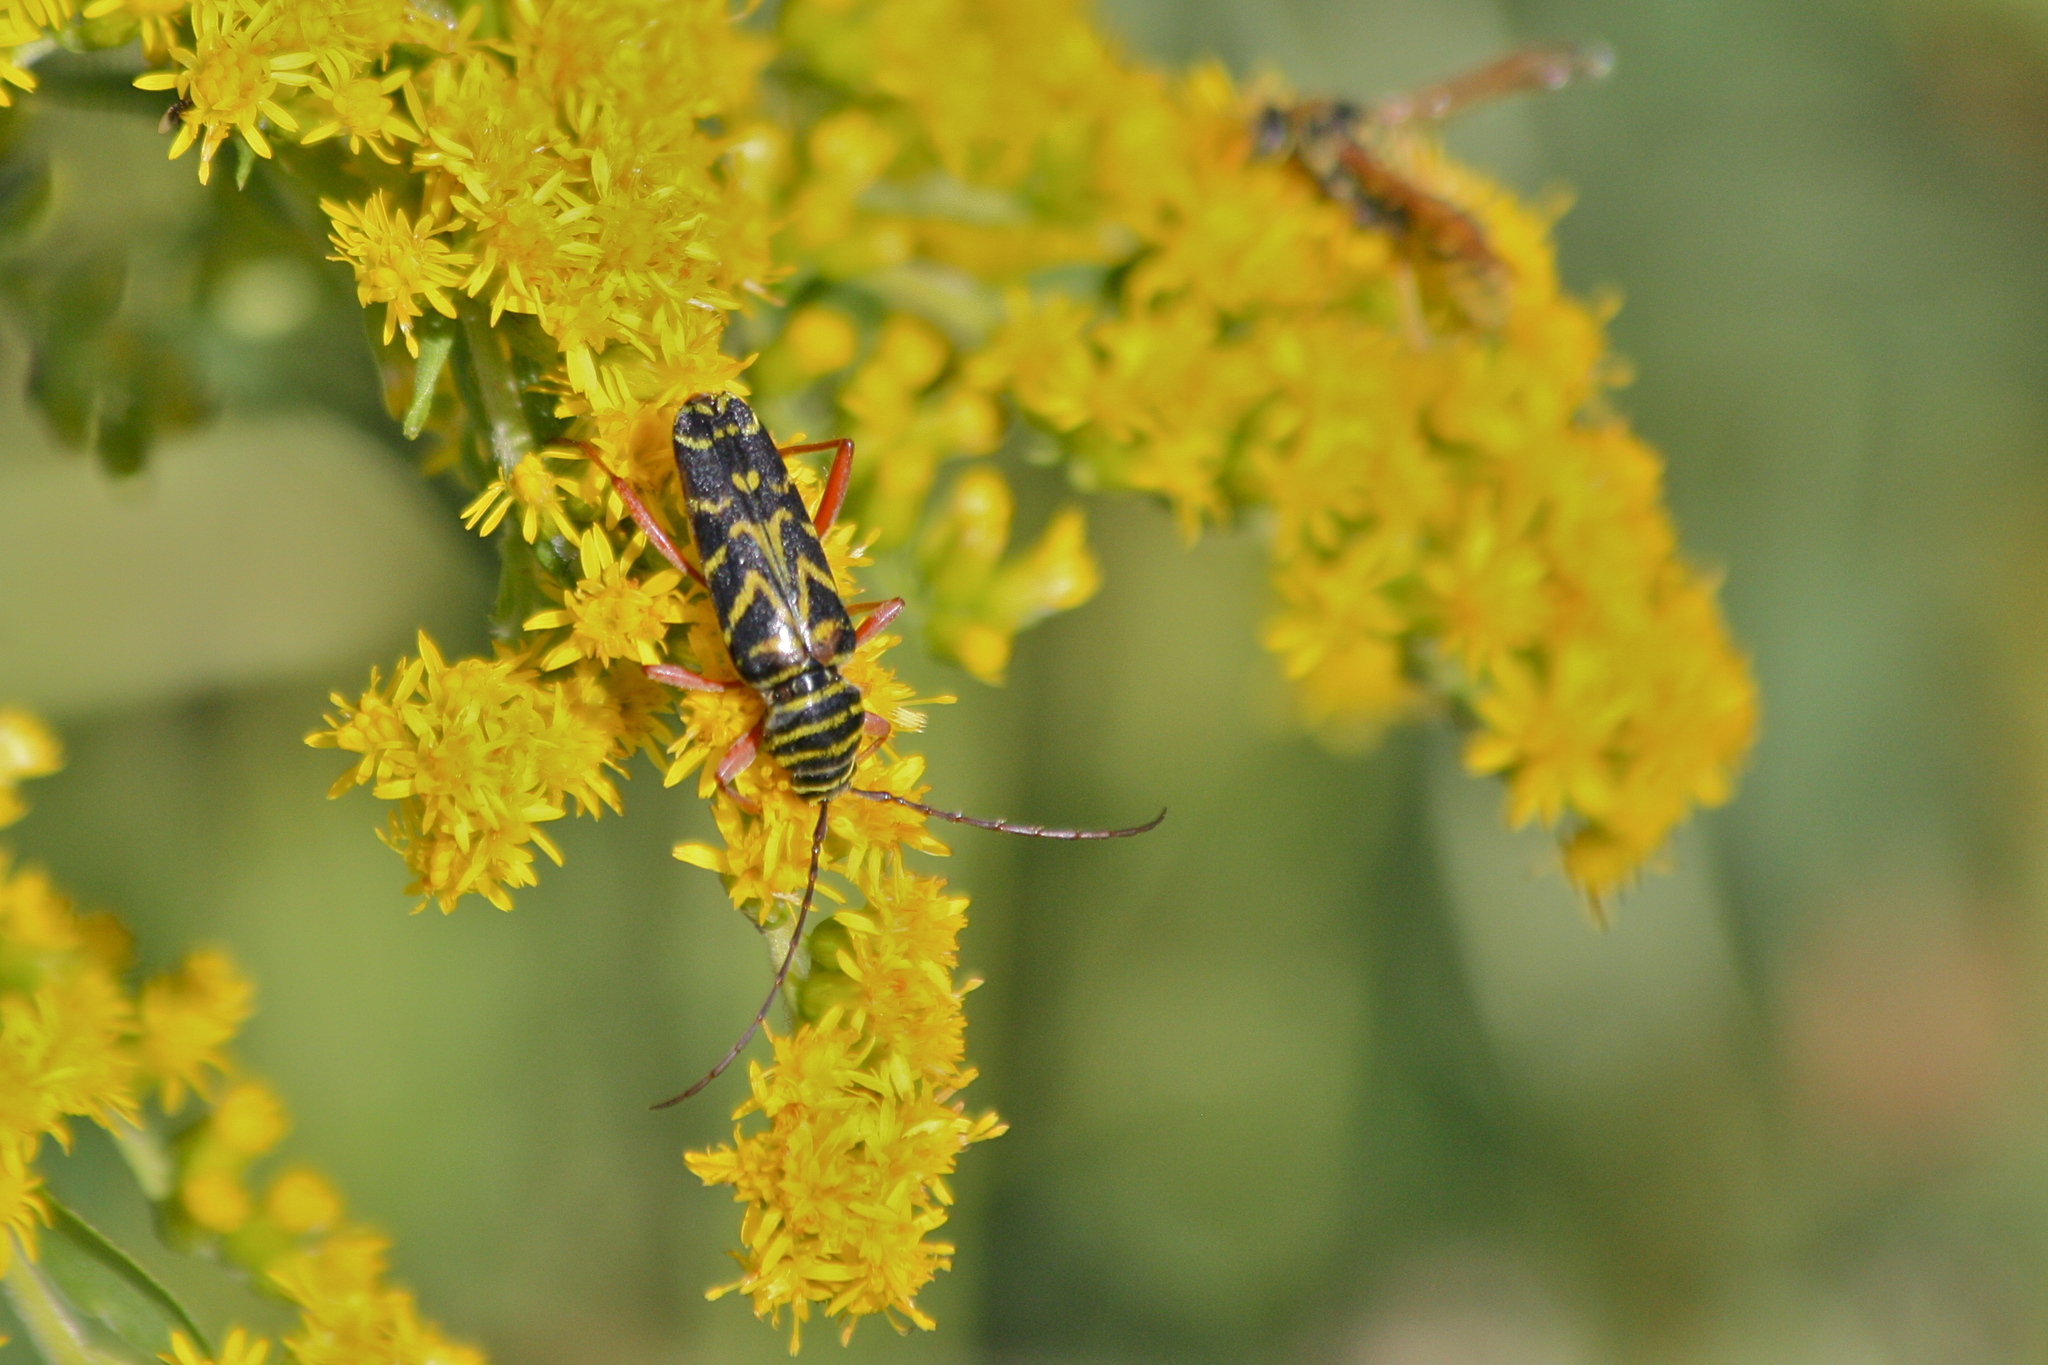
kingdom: Animalia
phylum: Arthropoda
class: Insecta
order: Coleoptera
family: Cerambycidae
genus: Megacyllene
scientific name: Megacyllene robiniae
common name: Locust borer
